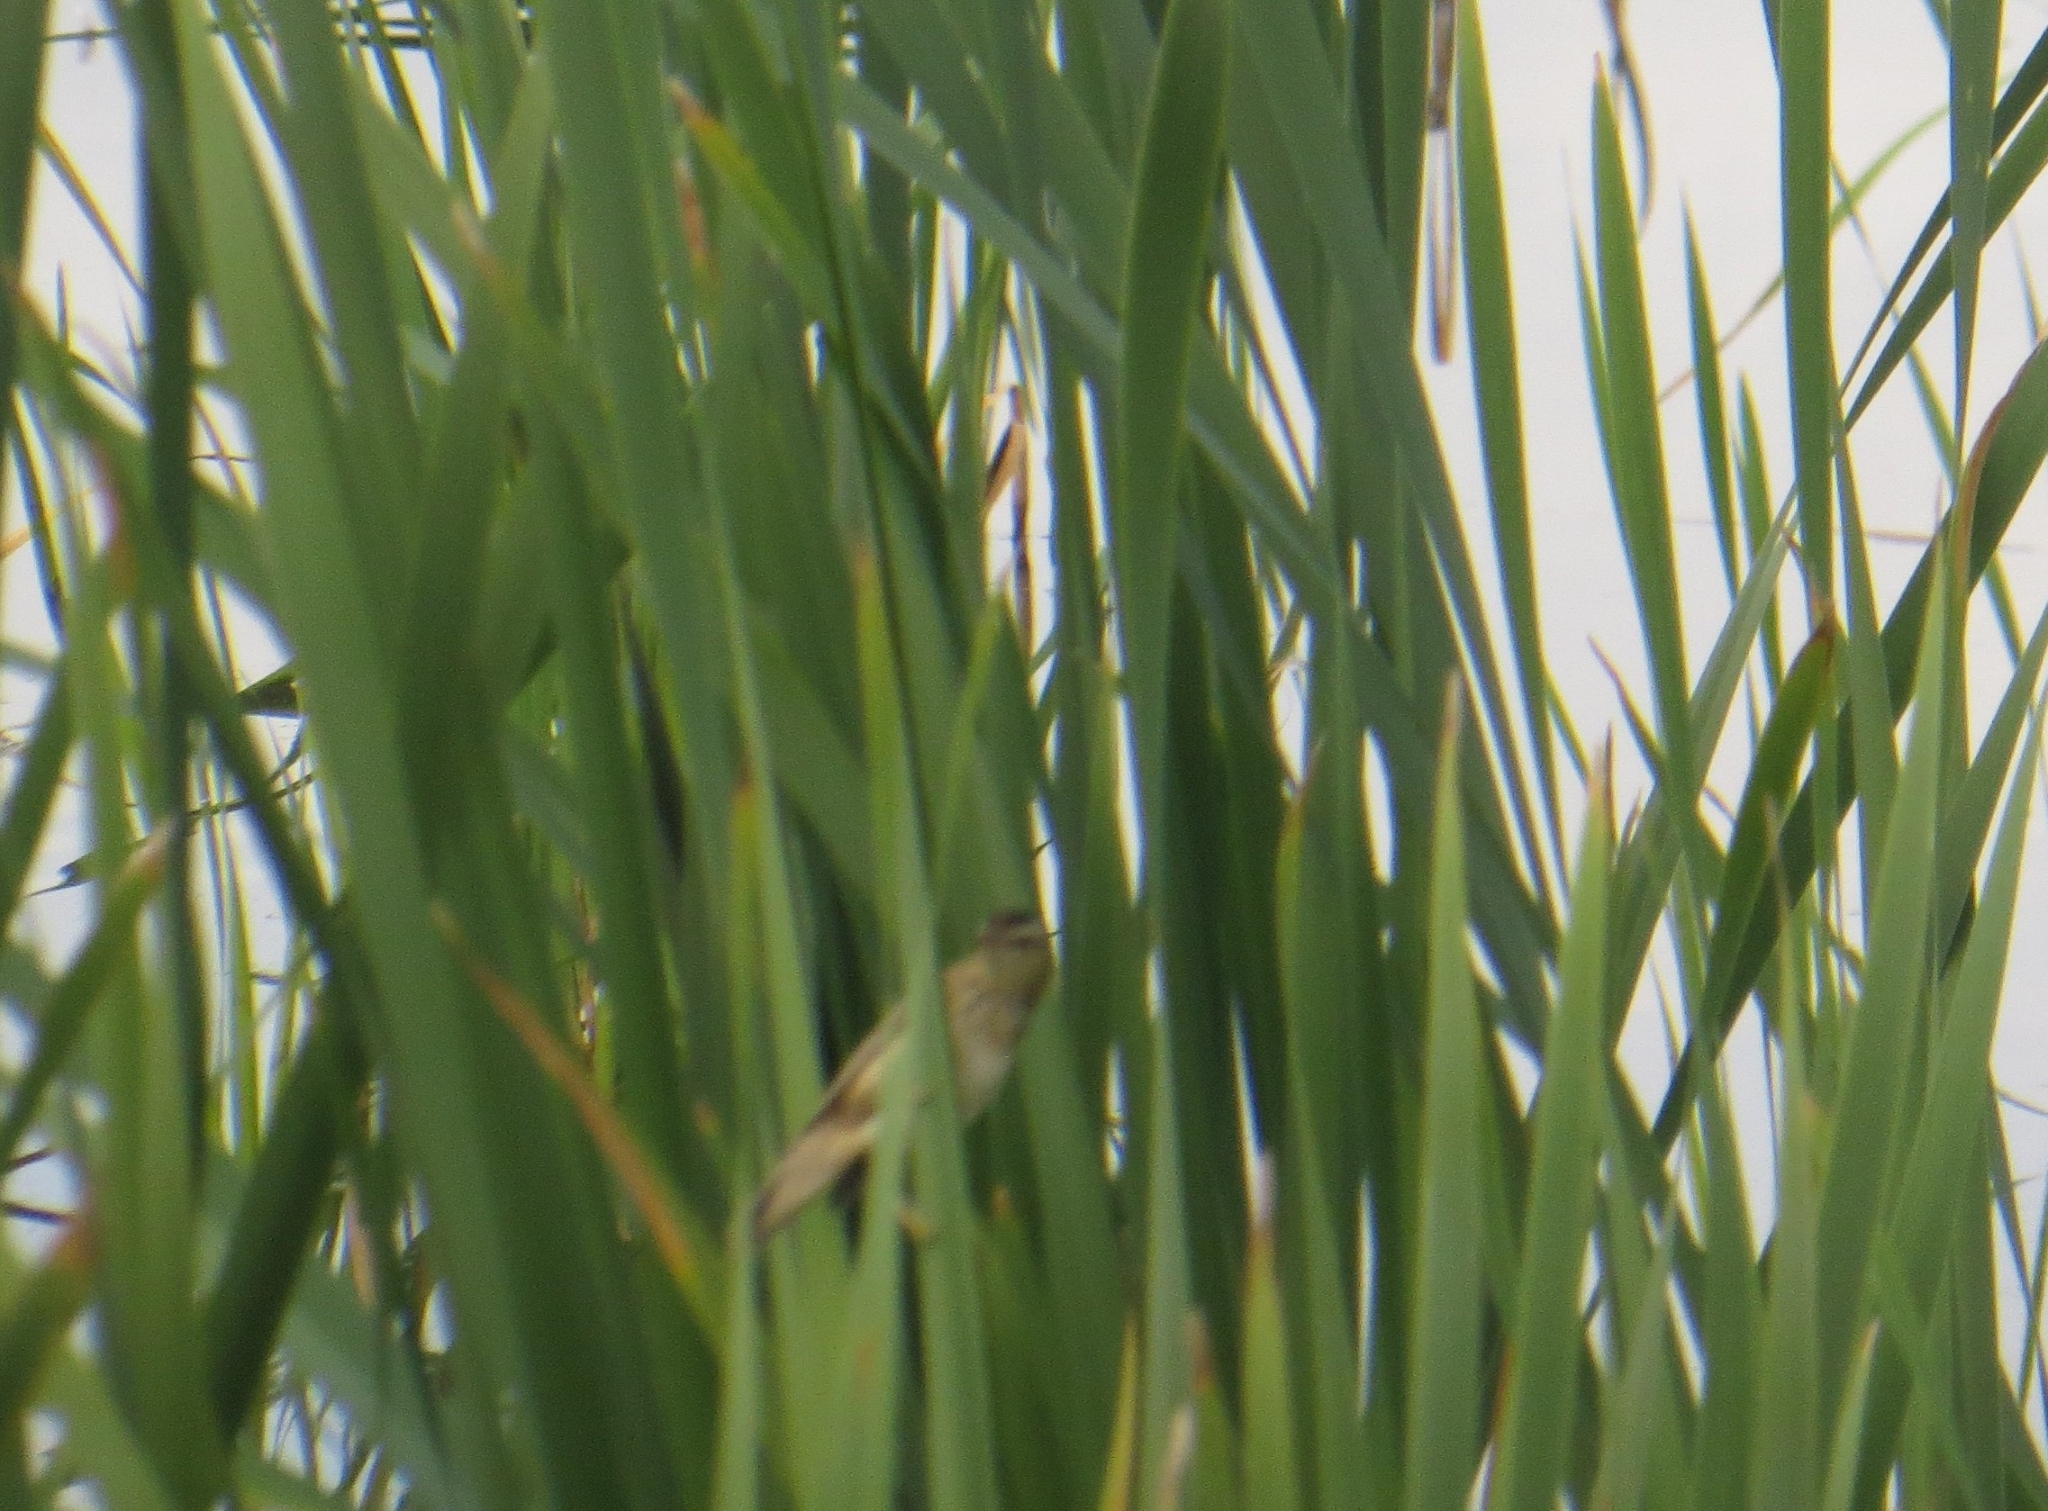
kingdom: Animalia
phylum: Chordata
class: Aves
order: Passeriformes
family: Acrocephalidae
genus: Acrocephalus
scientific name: Acrocephalus schoenobaenus
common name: Sedge warbler
